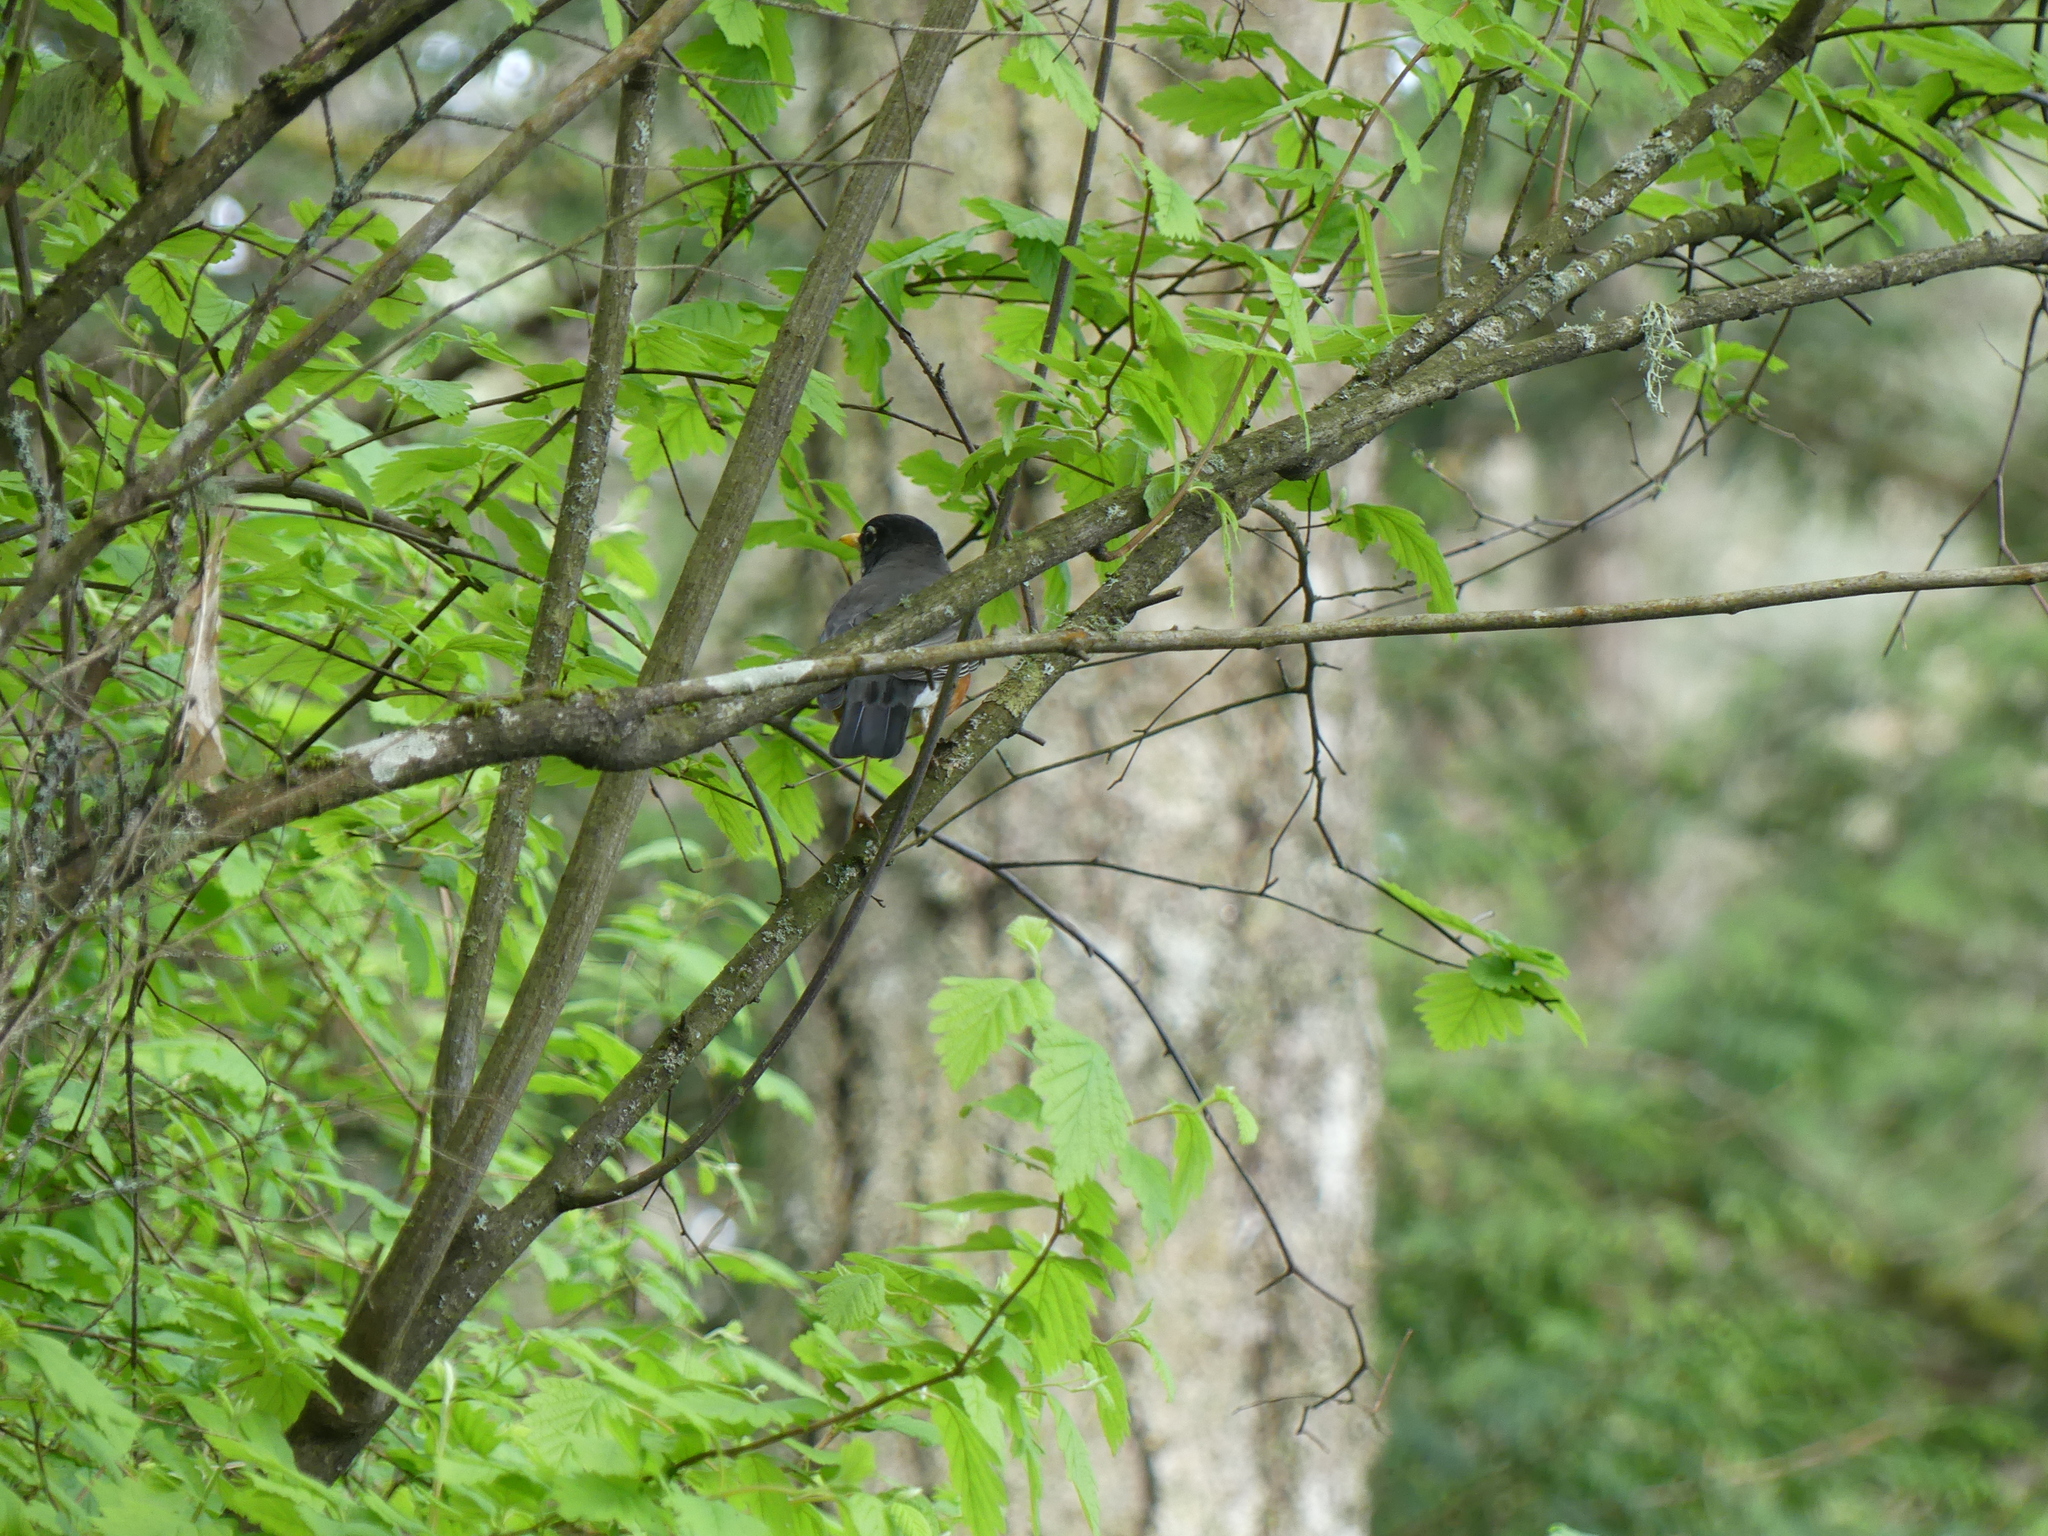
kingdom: Animalia
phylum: Chordata
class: Aves
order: Passeriformes
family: Turdidae
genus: Turdus
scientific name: Turdus migratorius
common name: American robin
